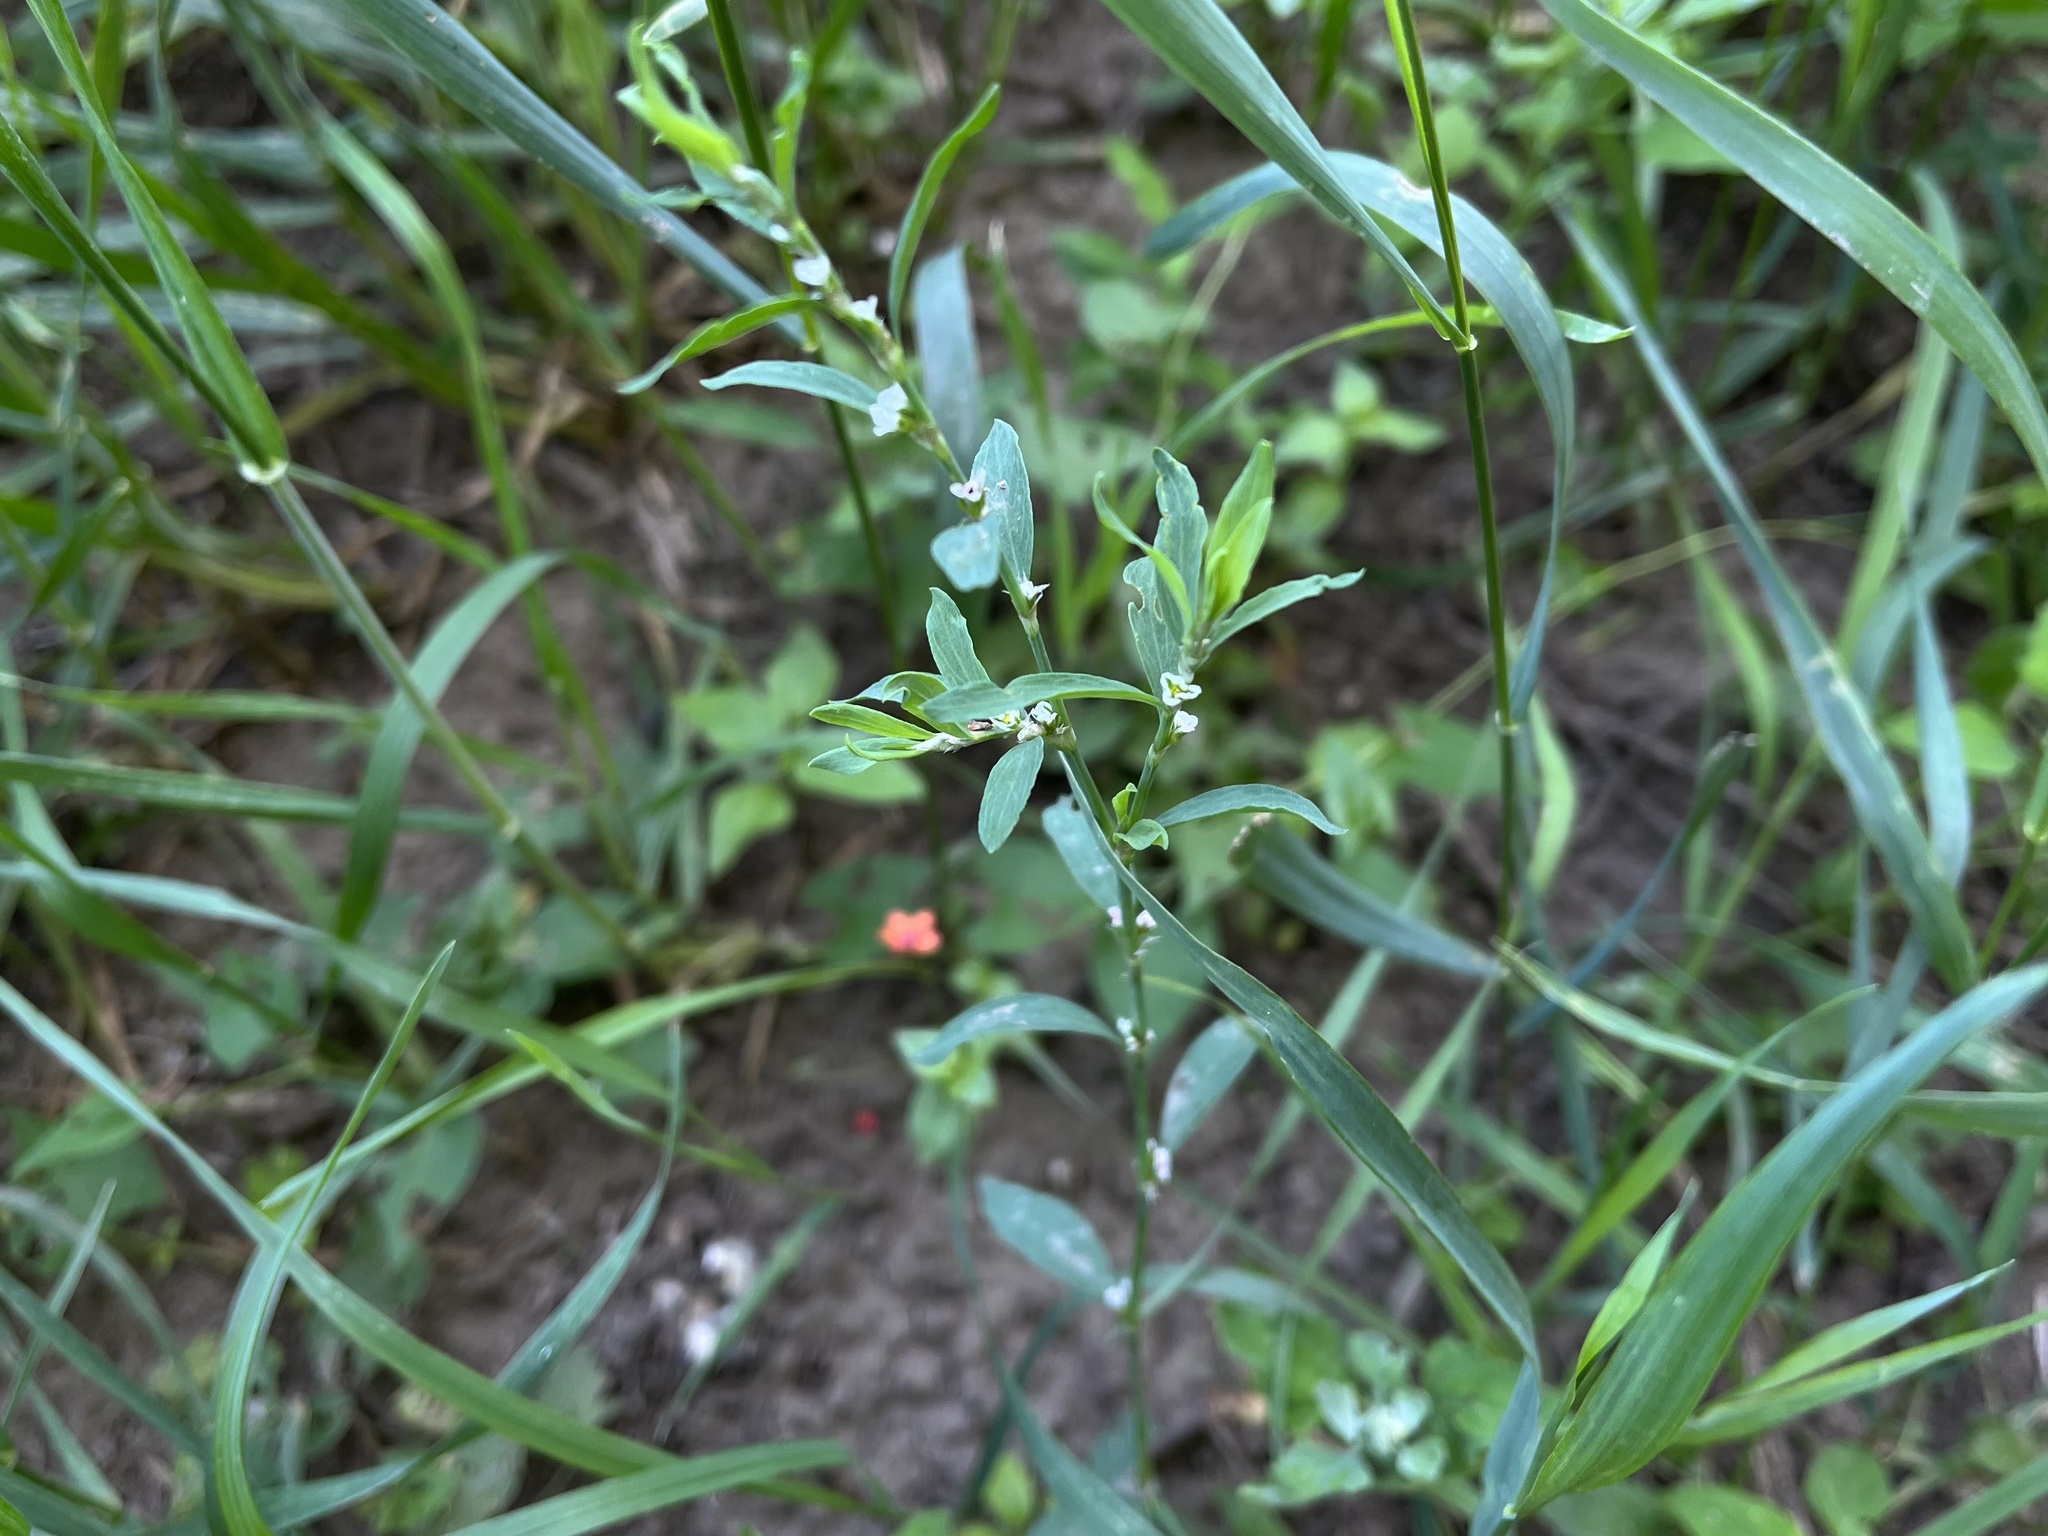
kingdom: Plantae
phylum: Tracheophyta
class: Magnoliopsida
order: Caryophyllales
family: Polygonaceae
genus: Polygonum
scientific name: Polygonum
